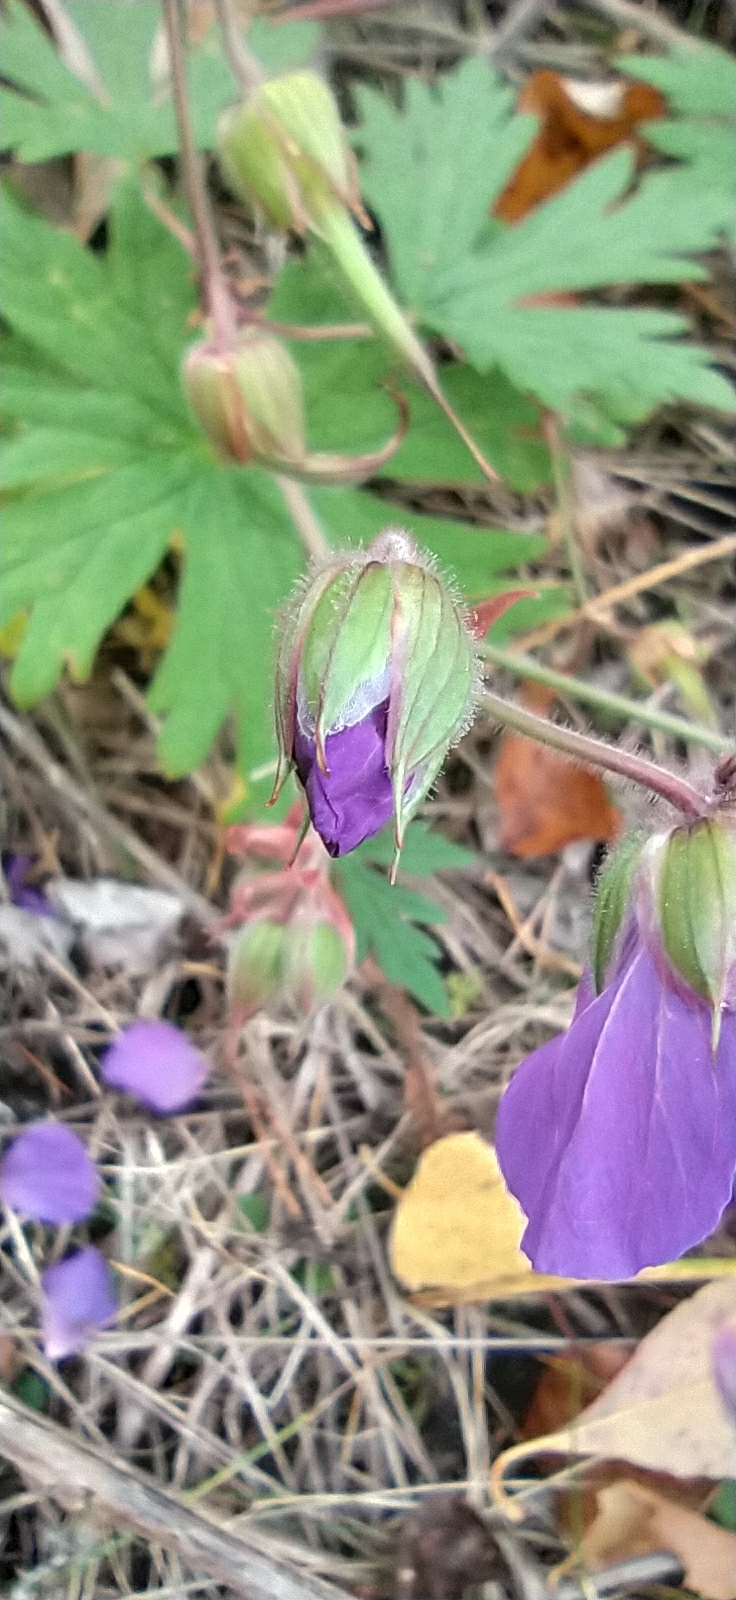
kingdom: Plantae
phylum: Tracheophyta
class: Magnoliopsida
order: Geraniales
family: Geraniaceae
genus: Geranium
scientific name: Geranium pratense
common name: Meadow crane's-bill
